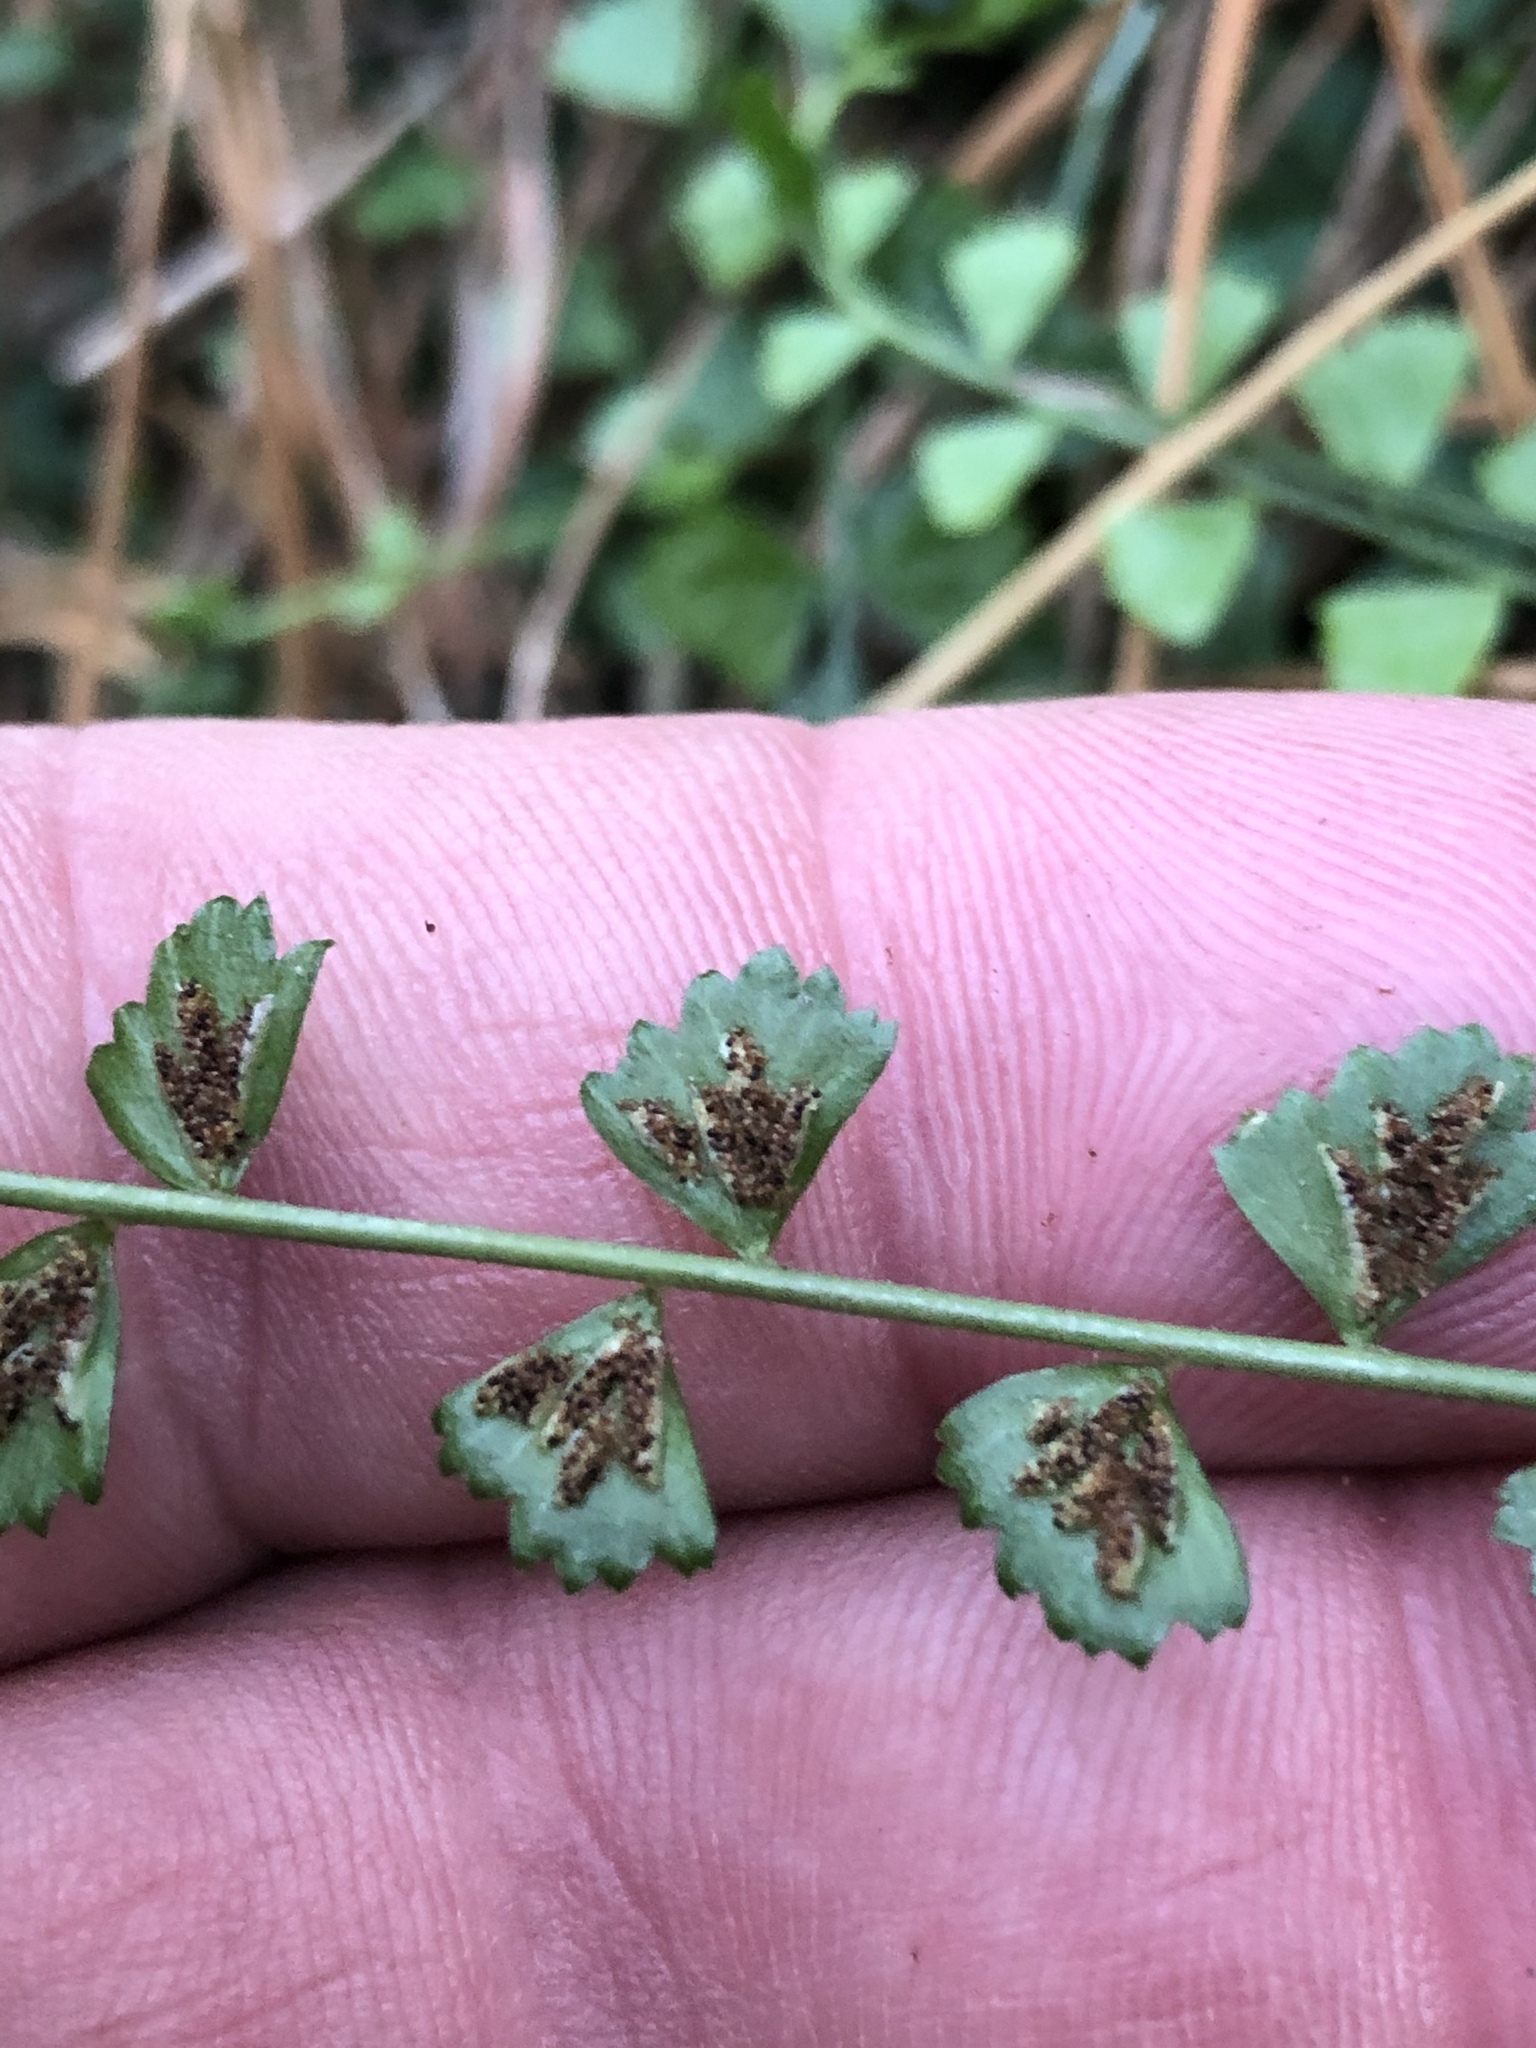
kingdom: Plantae
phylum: Tracheophyta
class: Polypodiopsida
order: Polypodiales
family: Aspleniaceae
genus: Asplenium
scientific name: Asplenium flabellifolium
